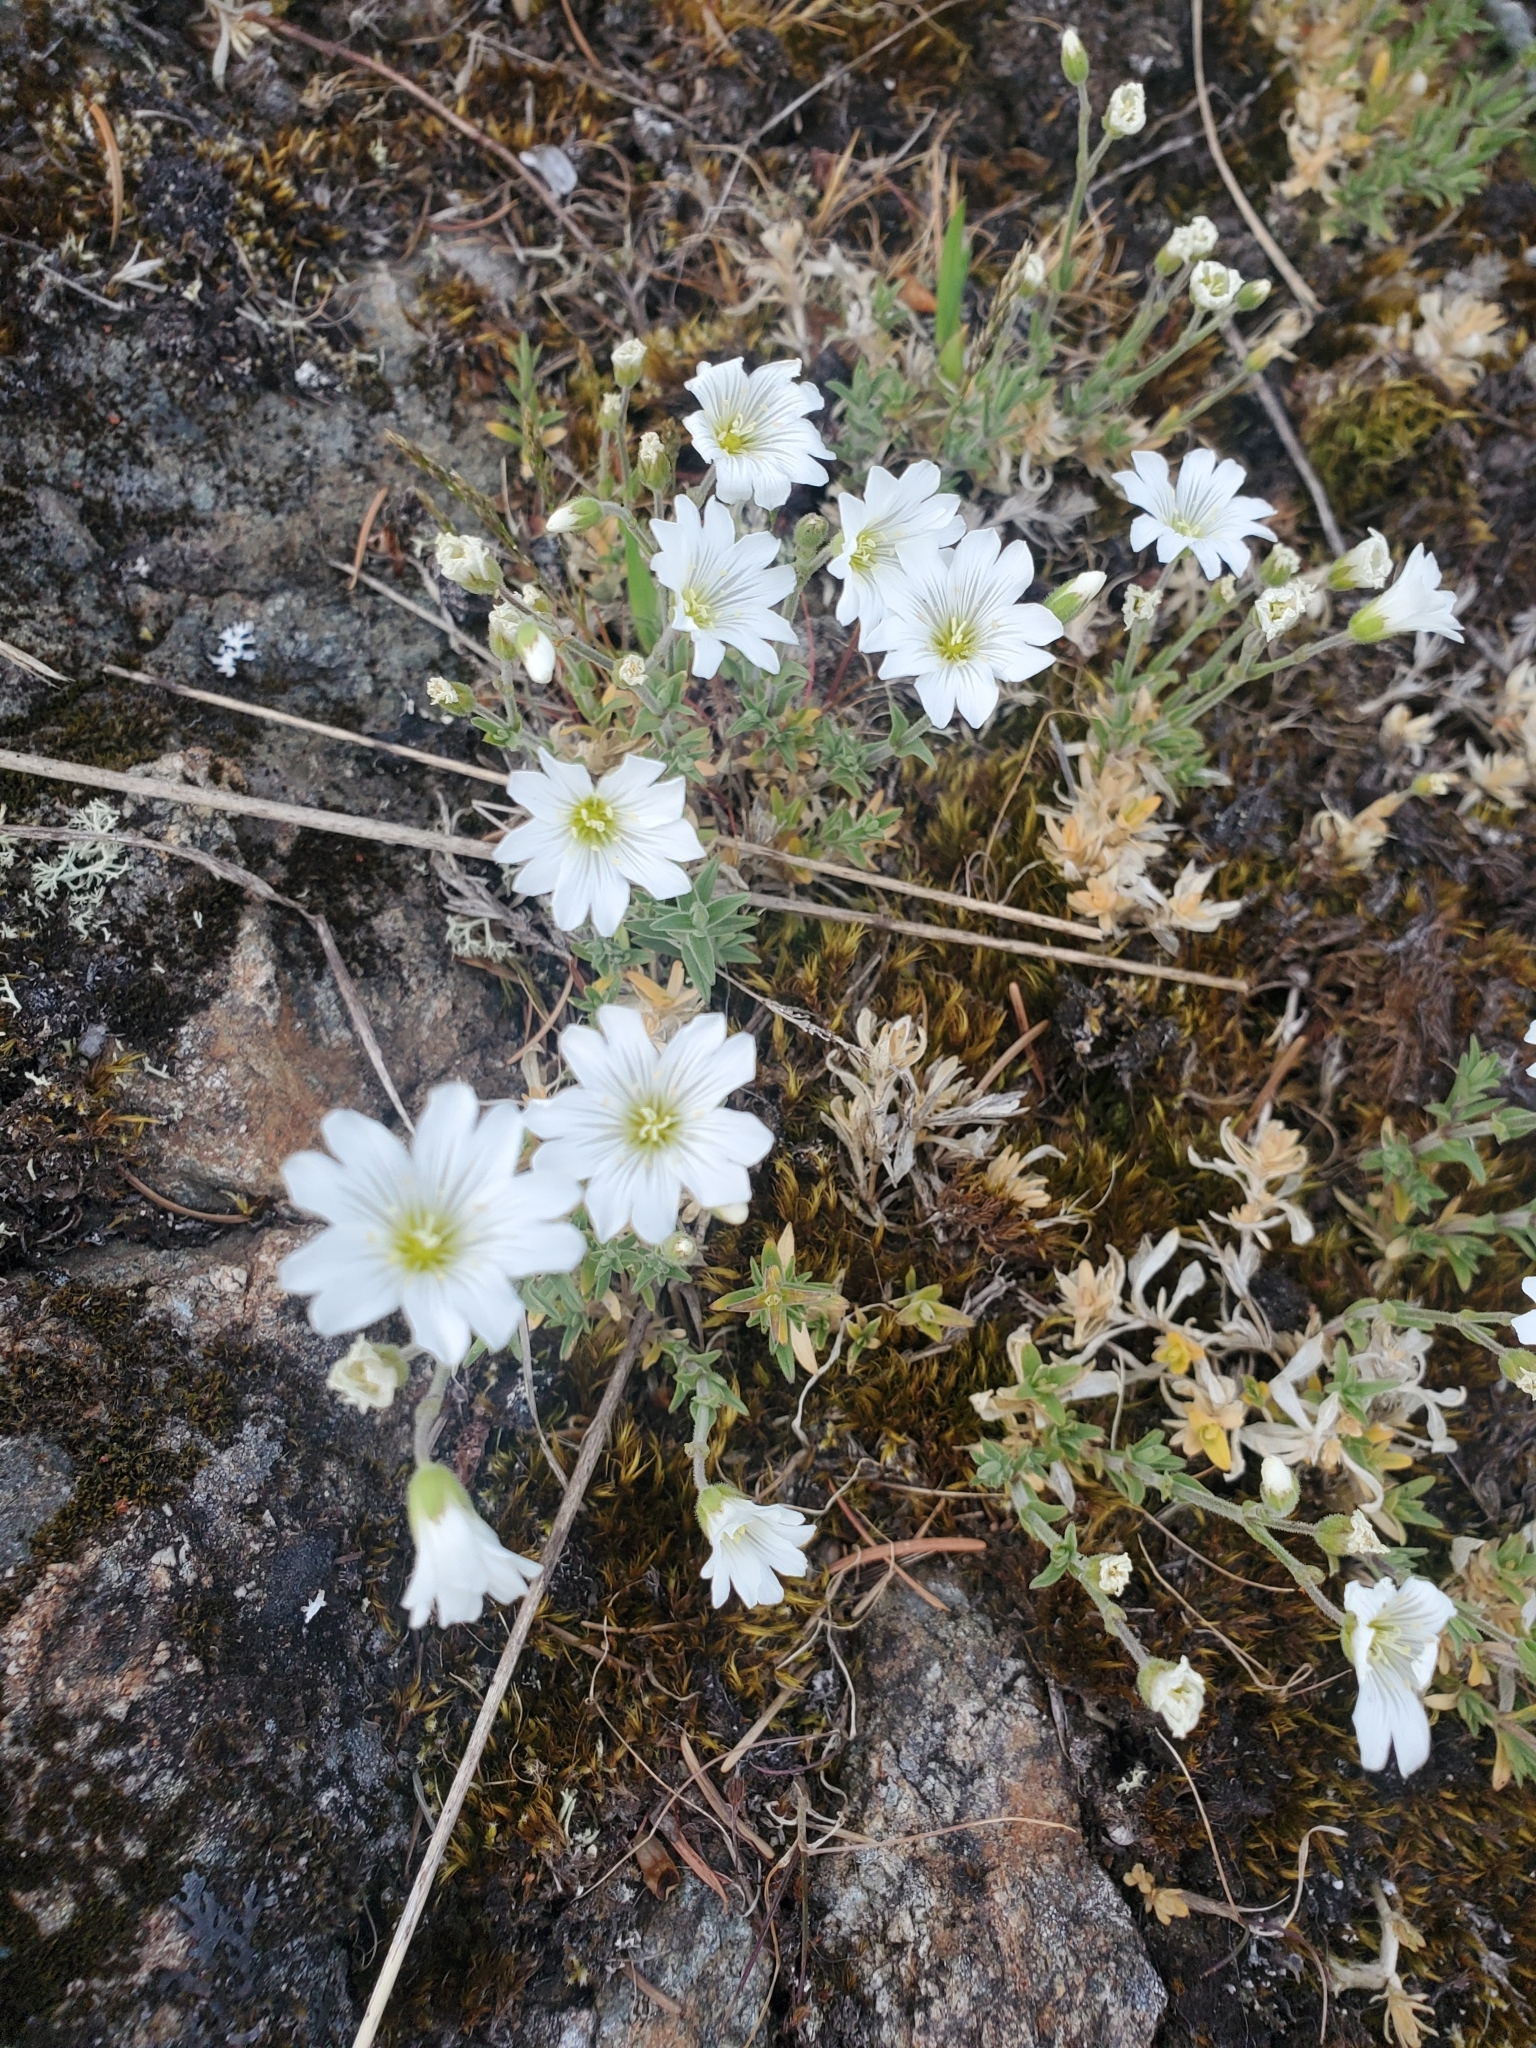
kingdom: Plantae
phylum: Tracheophyta
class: Magnoliopsida
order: Caryophyllales
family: Caryophyllaceae
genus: Cerastium
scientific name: Cerastium arvense
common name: Field mouse-ear
